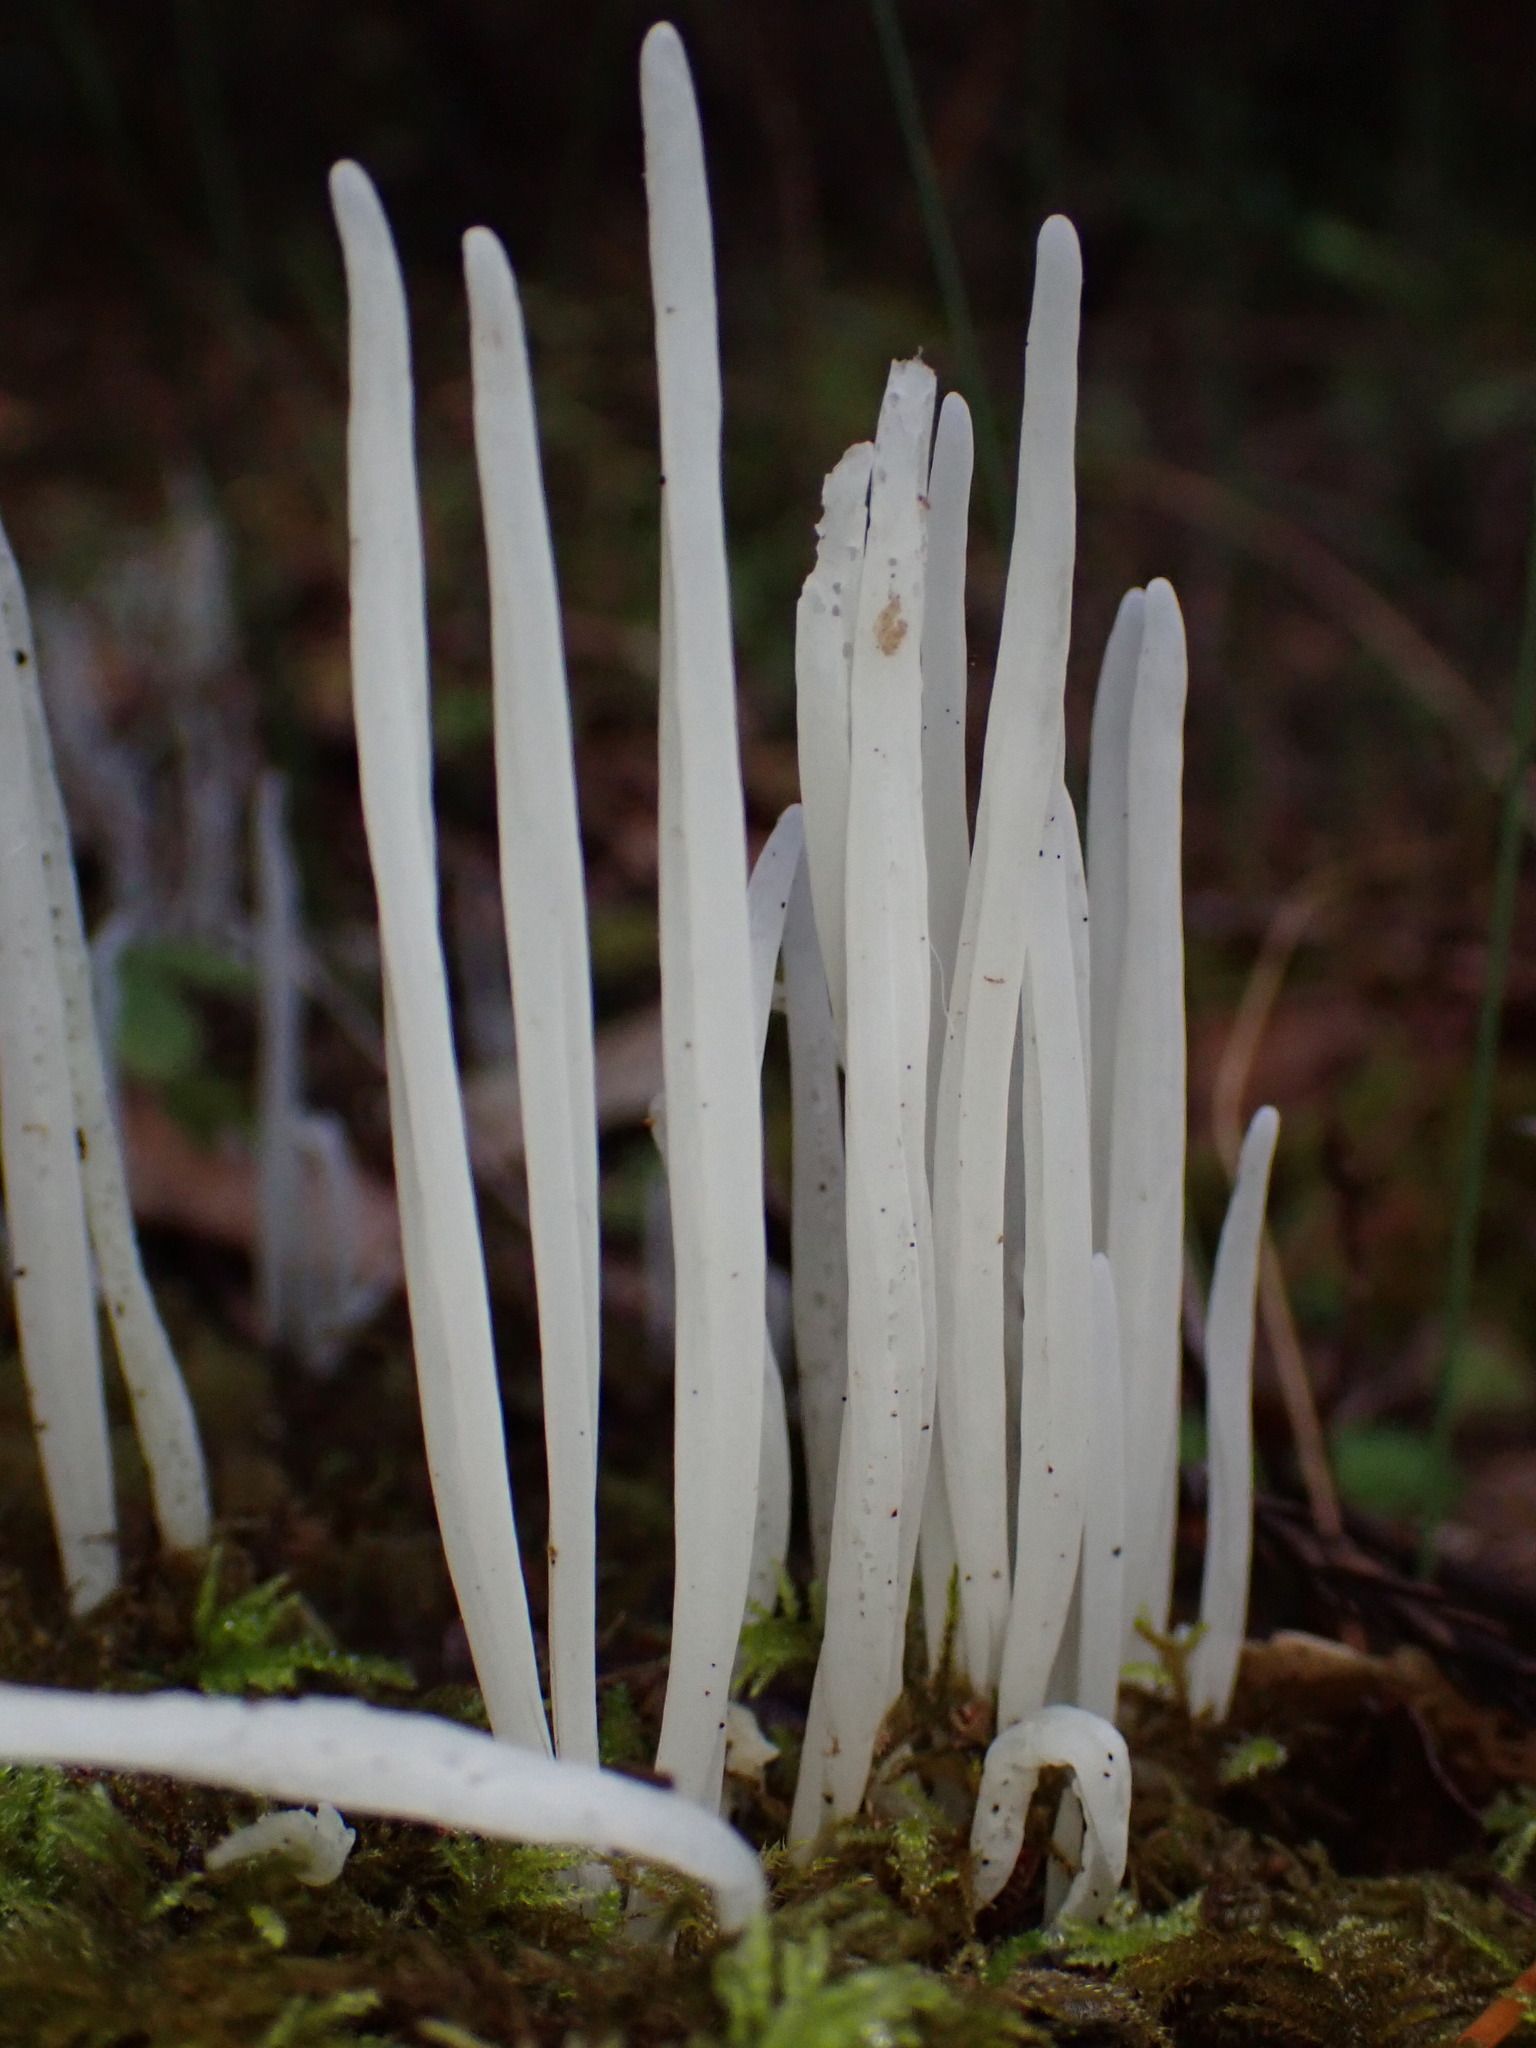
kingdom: Fungi
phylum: Basidiomycota
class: Agaricomycetes
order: Agaricales
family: Clavariaceae
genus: Clavaria
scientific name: Clavaria fragilis
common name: White spindles
